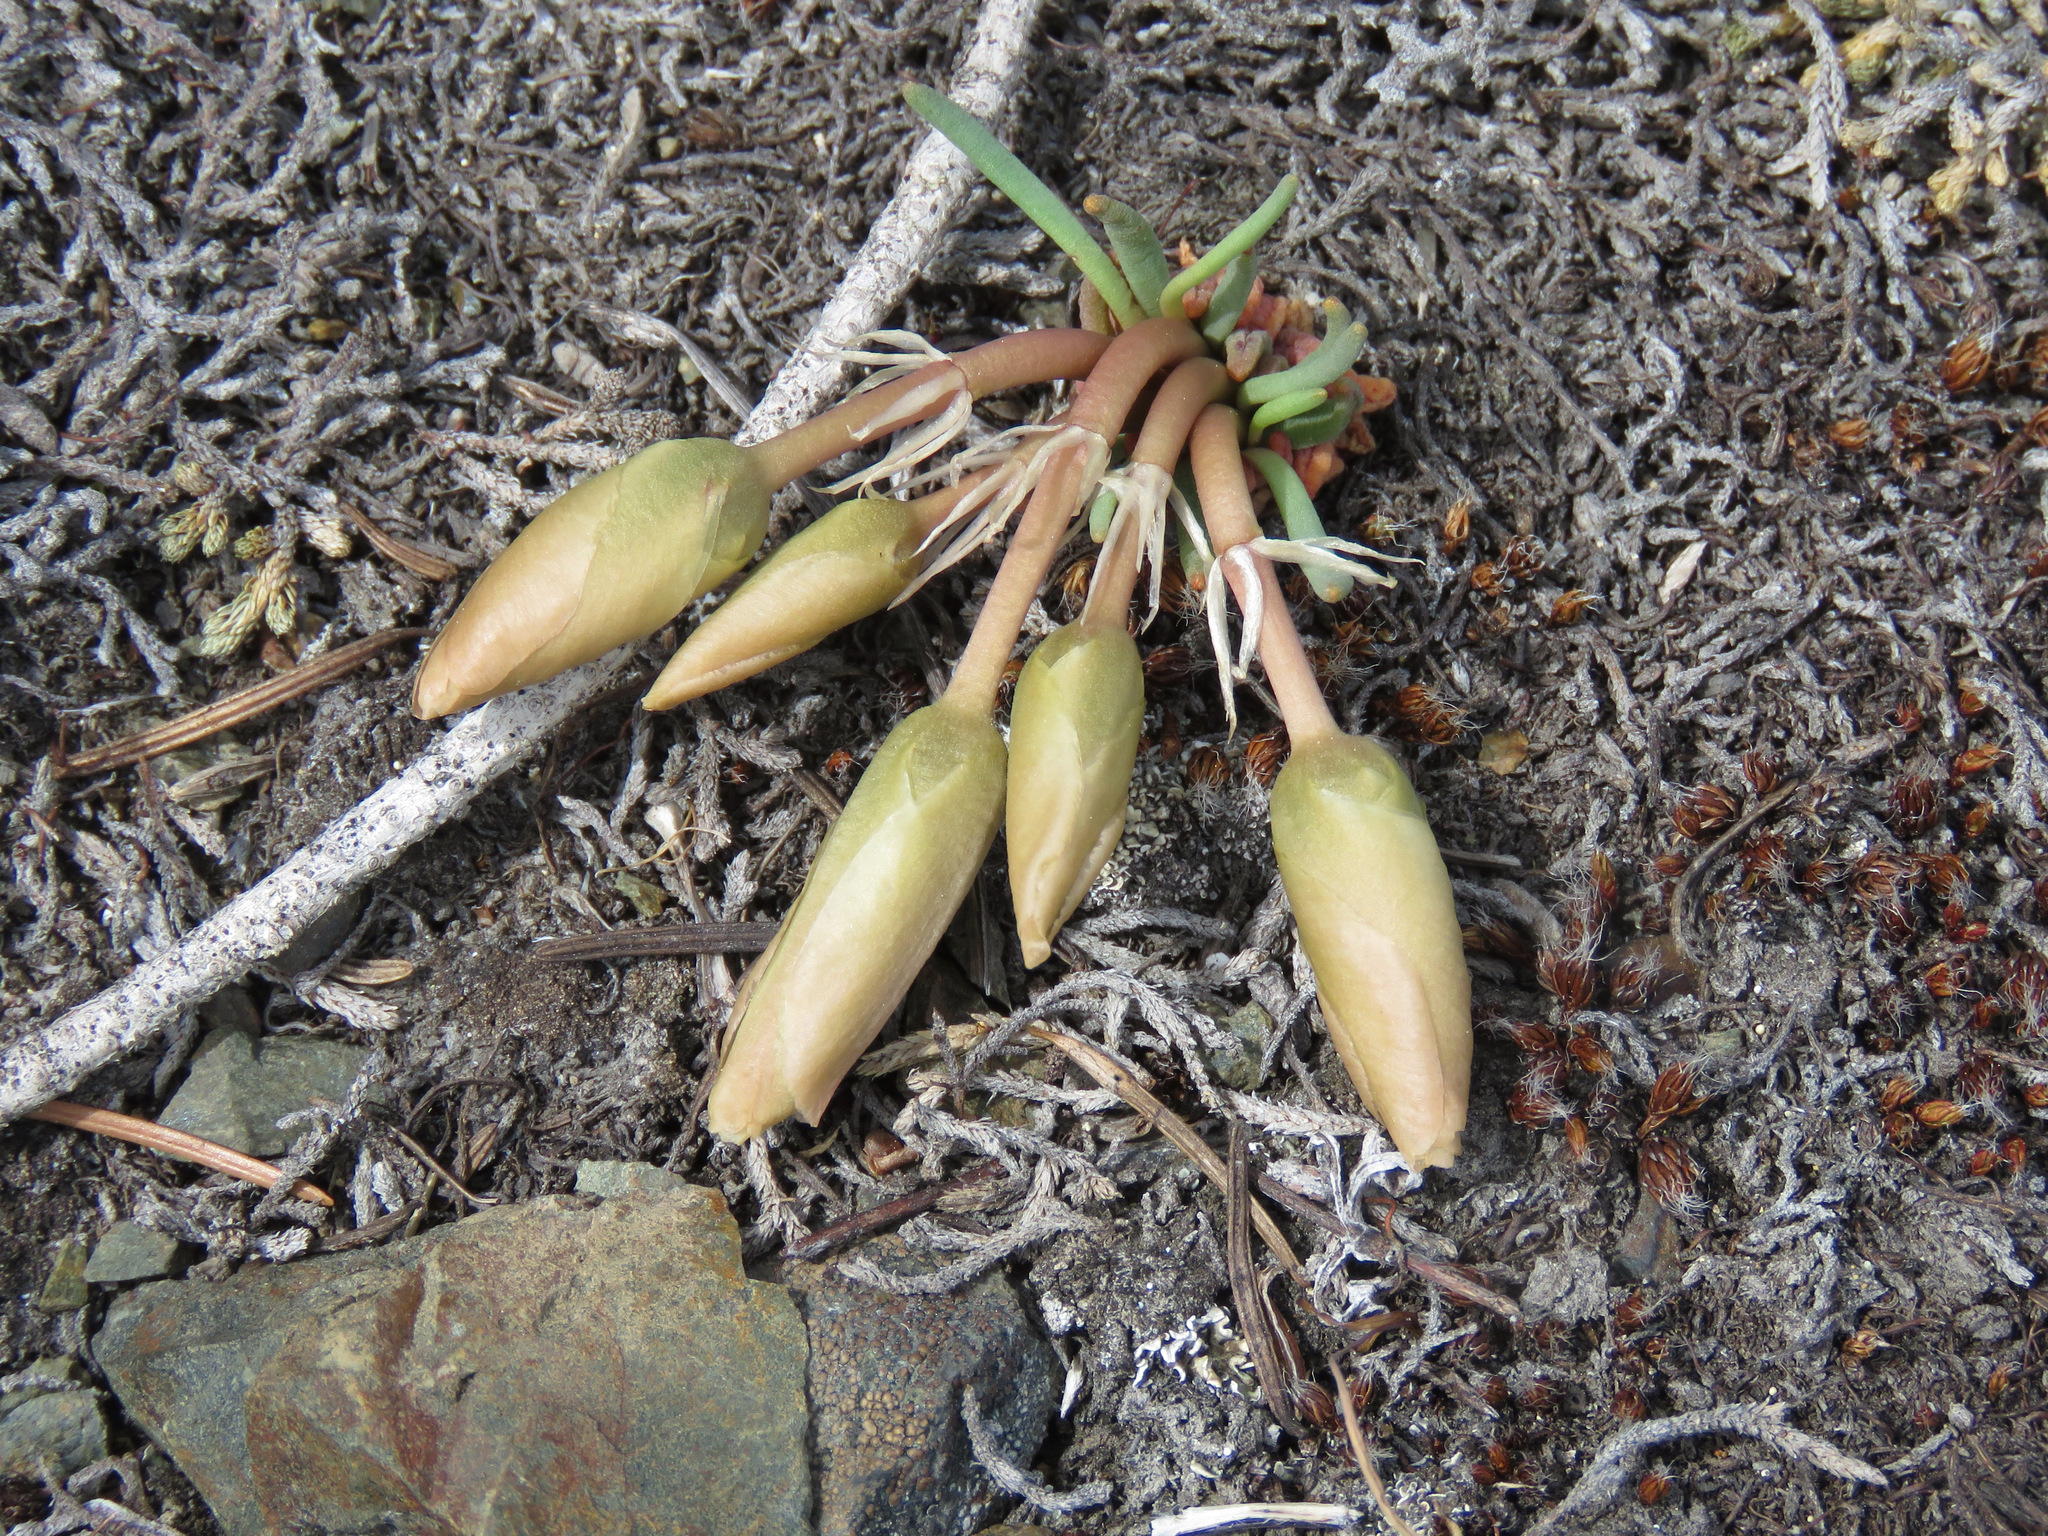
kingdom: Plantae
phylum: Tracheophyta
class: Magnoliopsida
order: Caryophyllales
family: Montiaceae
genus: Lewisia
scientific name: Lewisia rediviva
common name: Bitter-root
